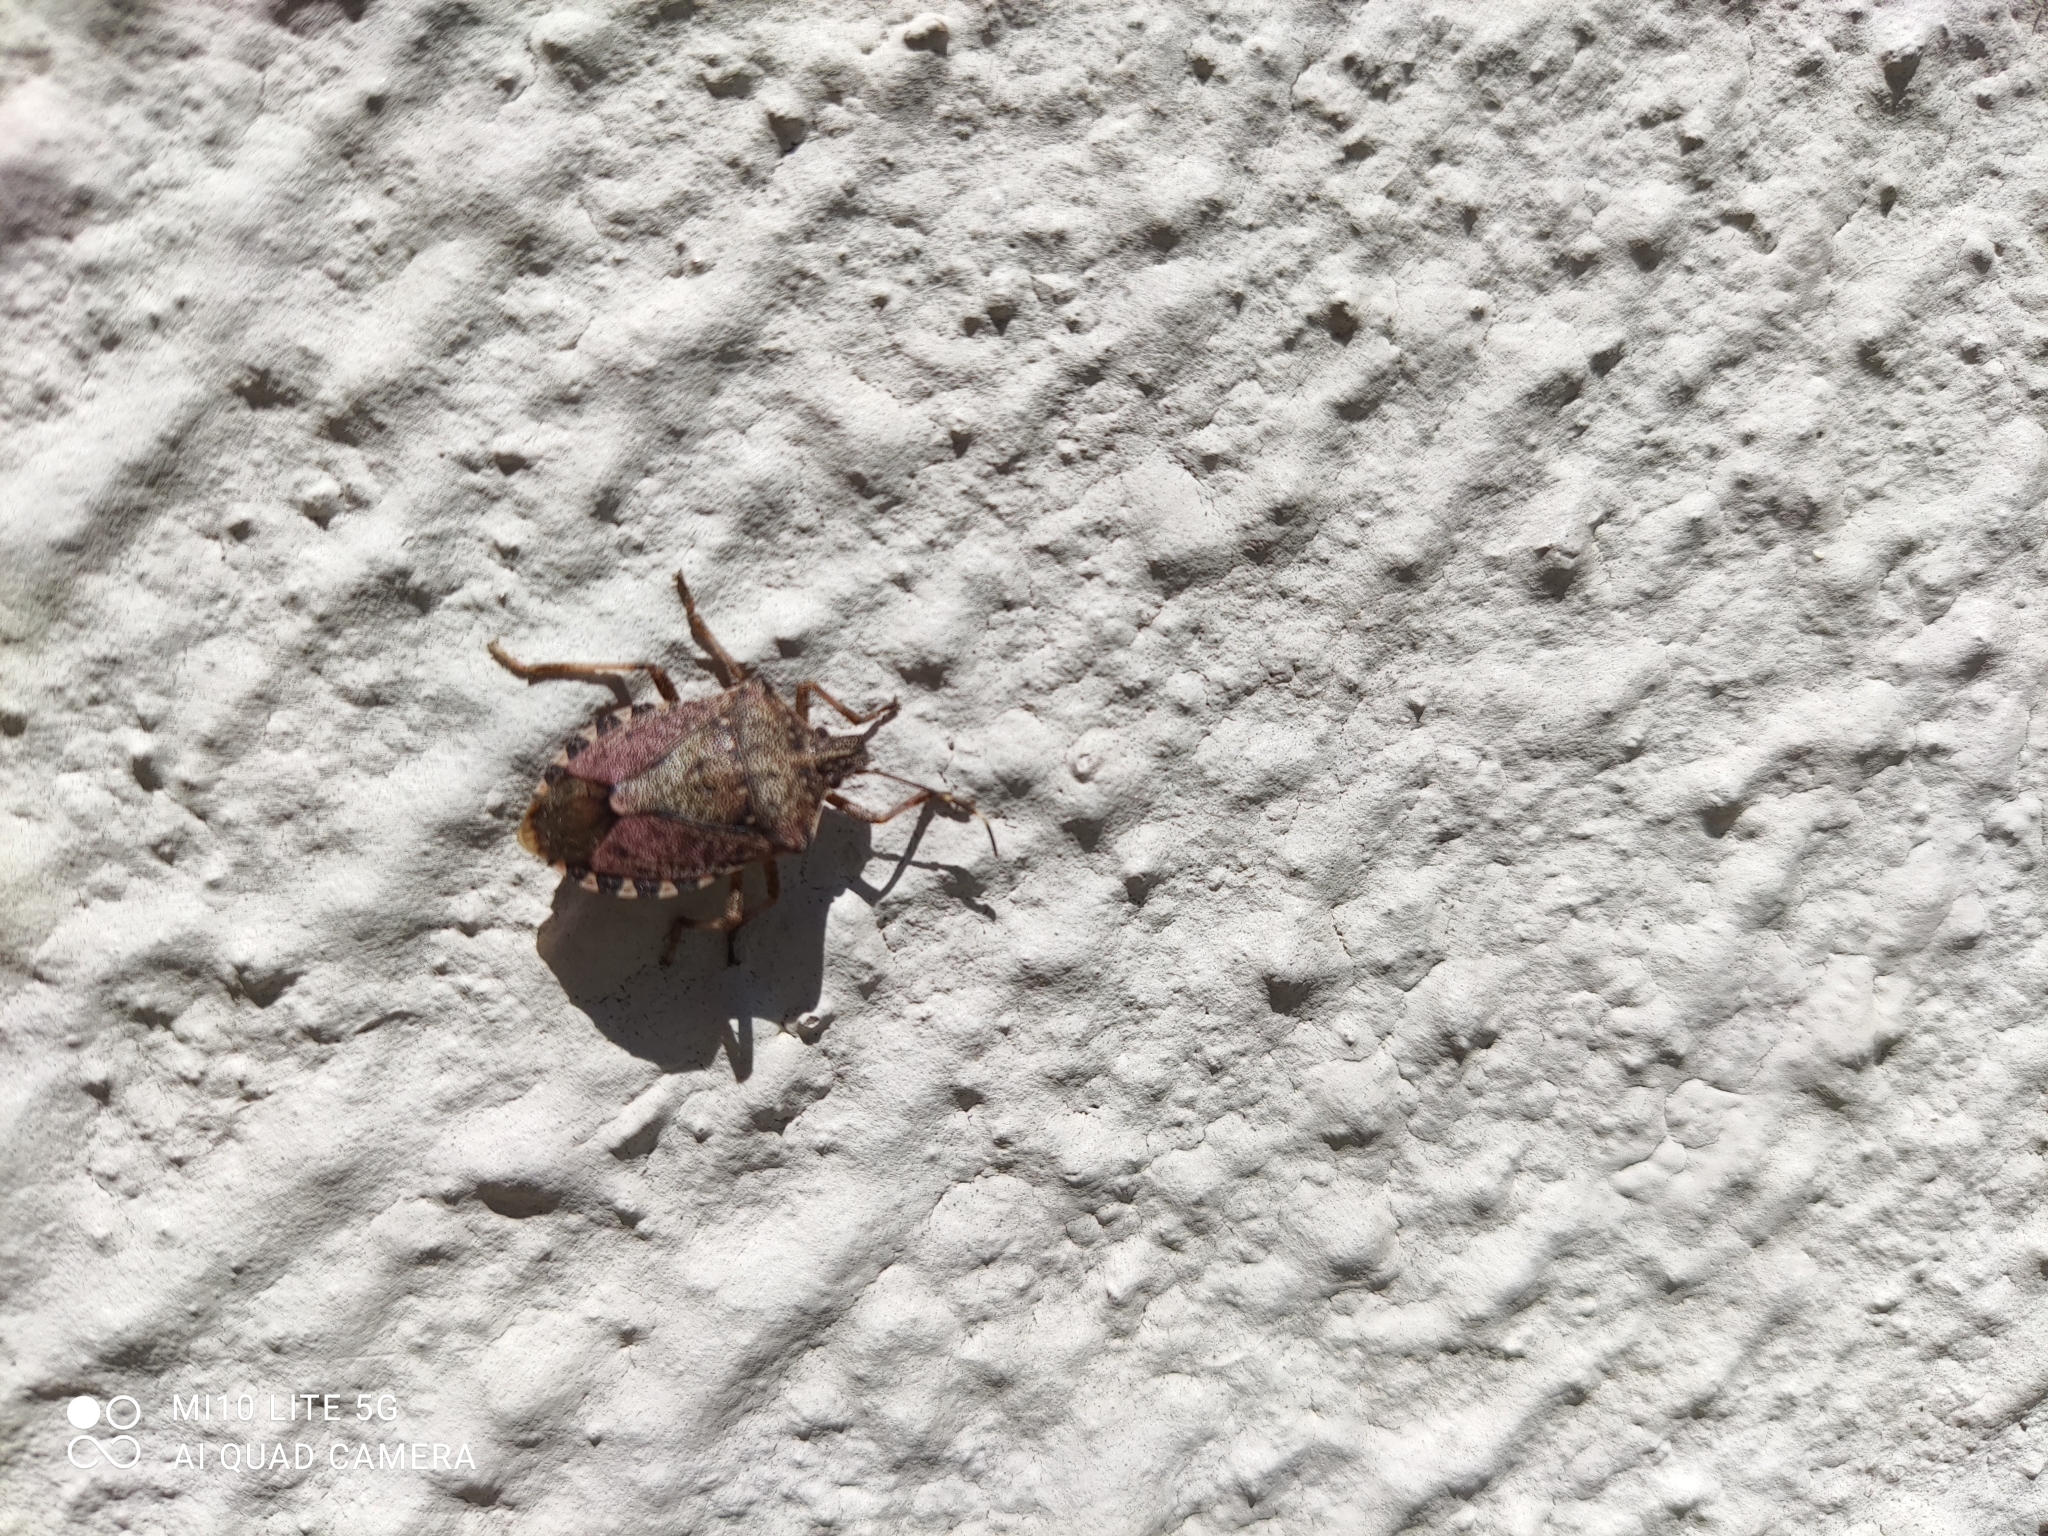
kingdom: Animalia
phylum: Arthropoda
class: Insecta
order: Hemiptera
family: Pentatomidae
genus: Halyomorpha
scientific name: Halyomorpha halys
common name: Brown marmorated stink bug
